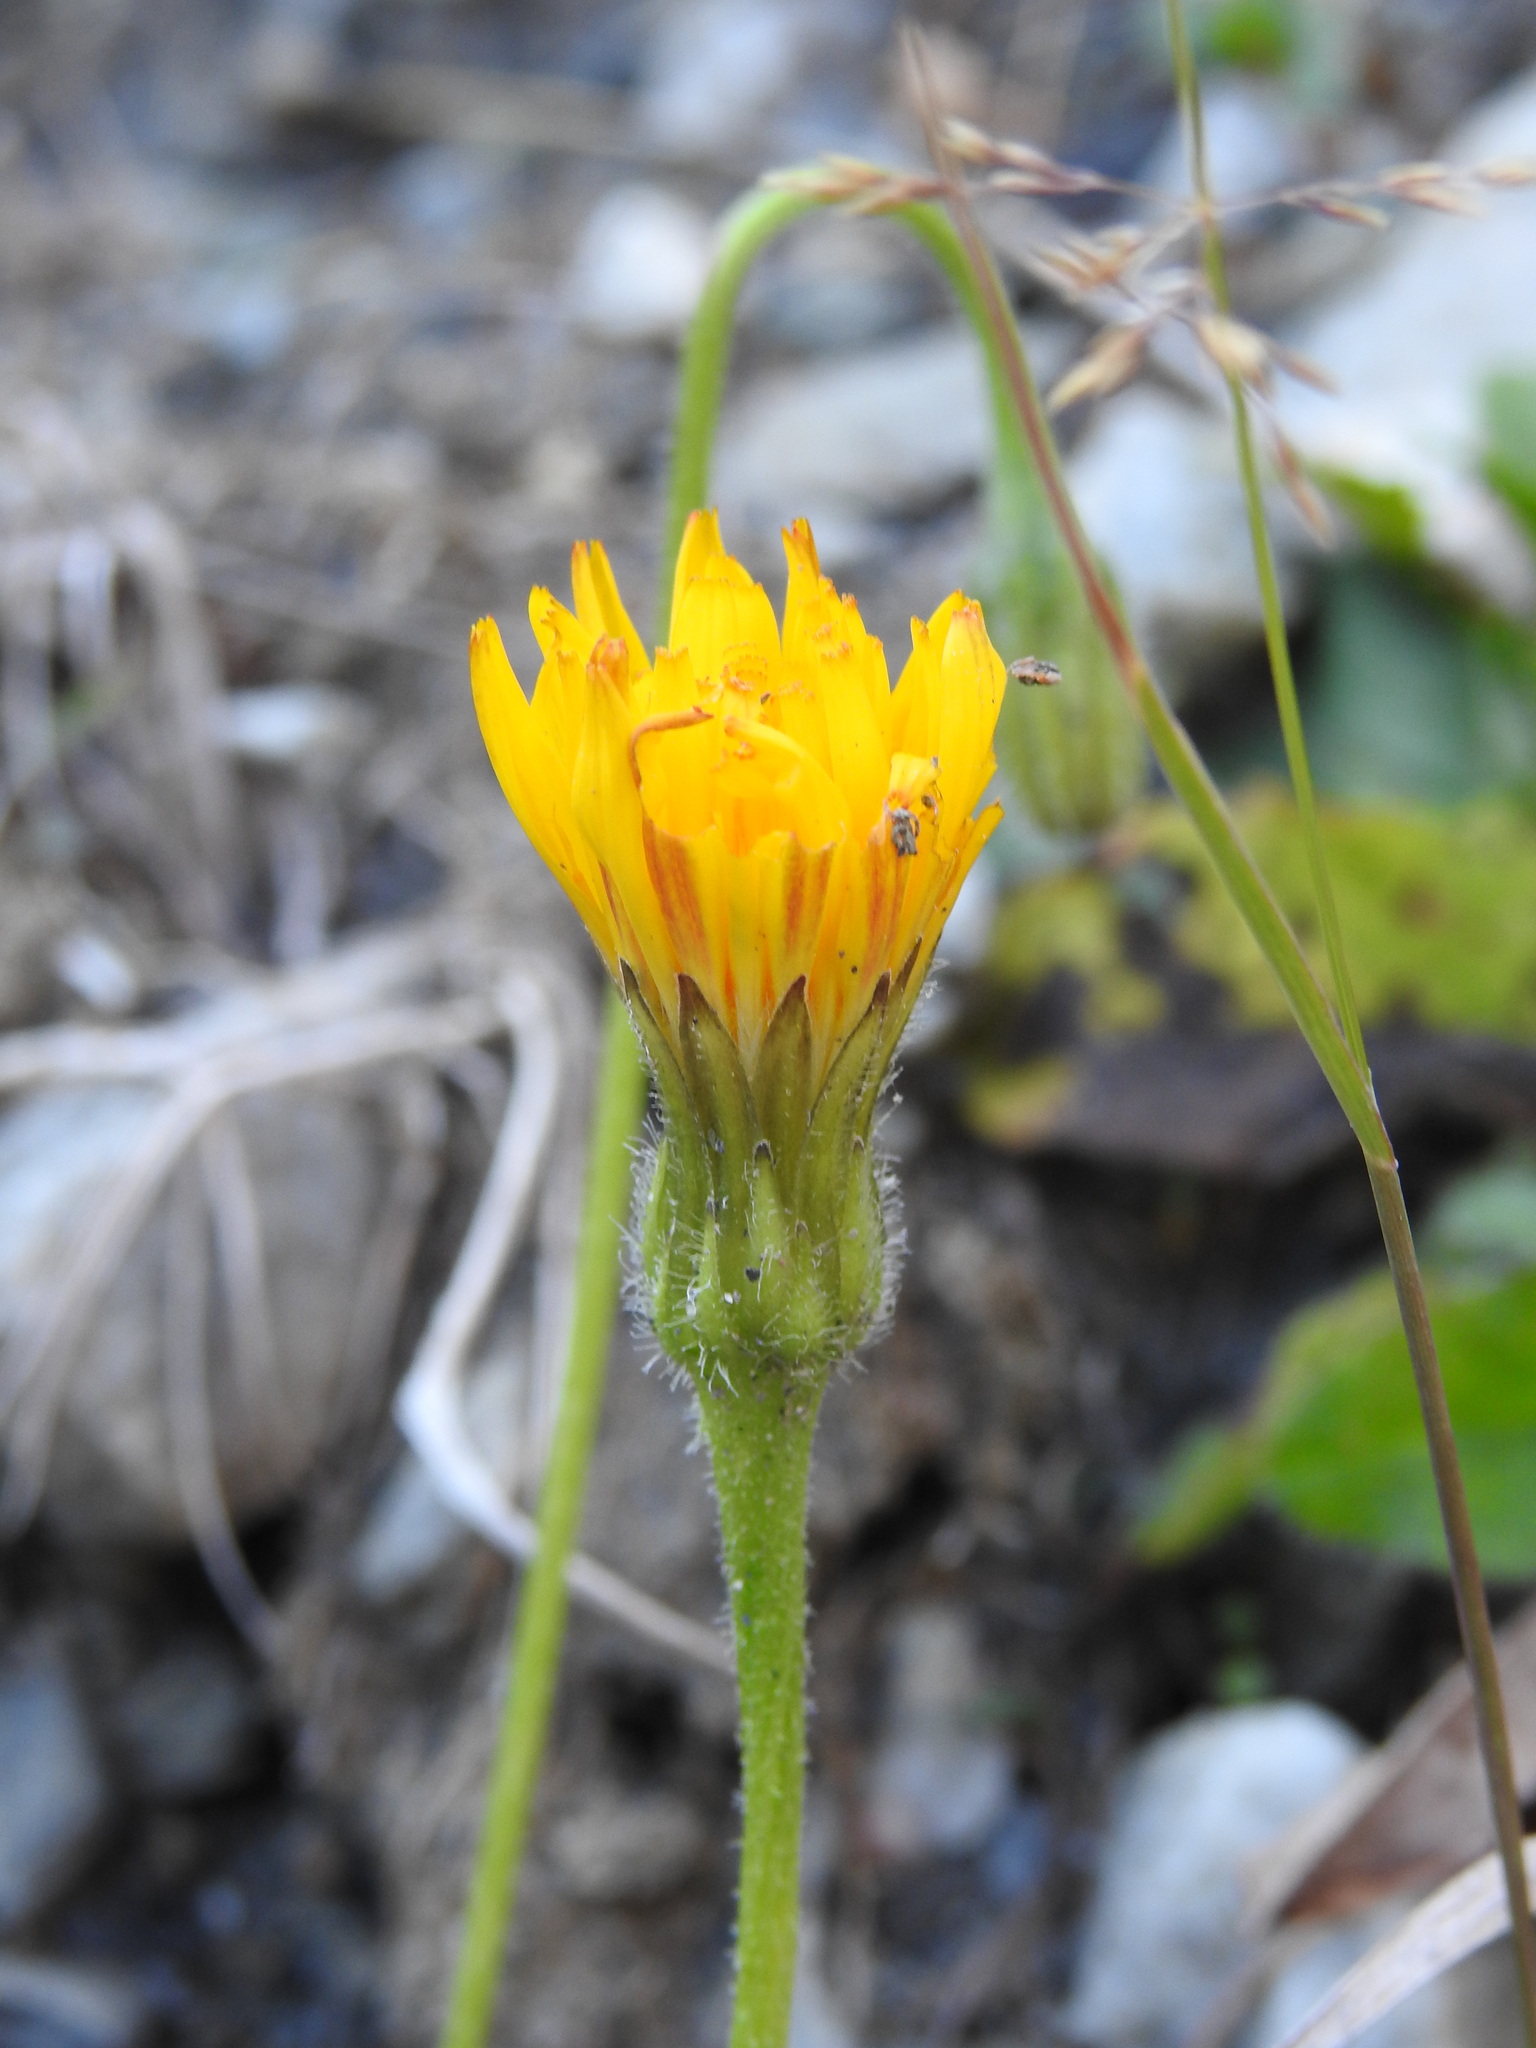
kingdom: Plantae
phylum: Tracheophyta
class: Magnoliopsida
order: Asterales
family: Asteraceae
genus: Leontodon
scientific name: Leontodon hispidus
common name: Rough hawkbit
